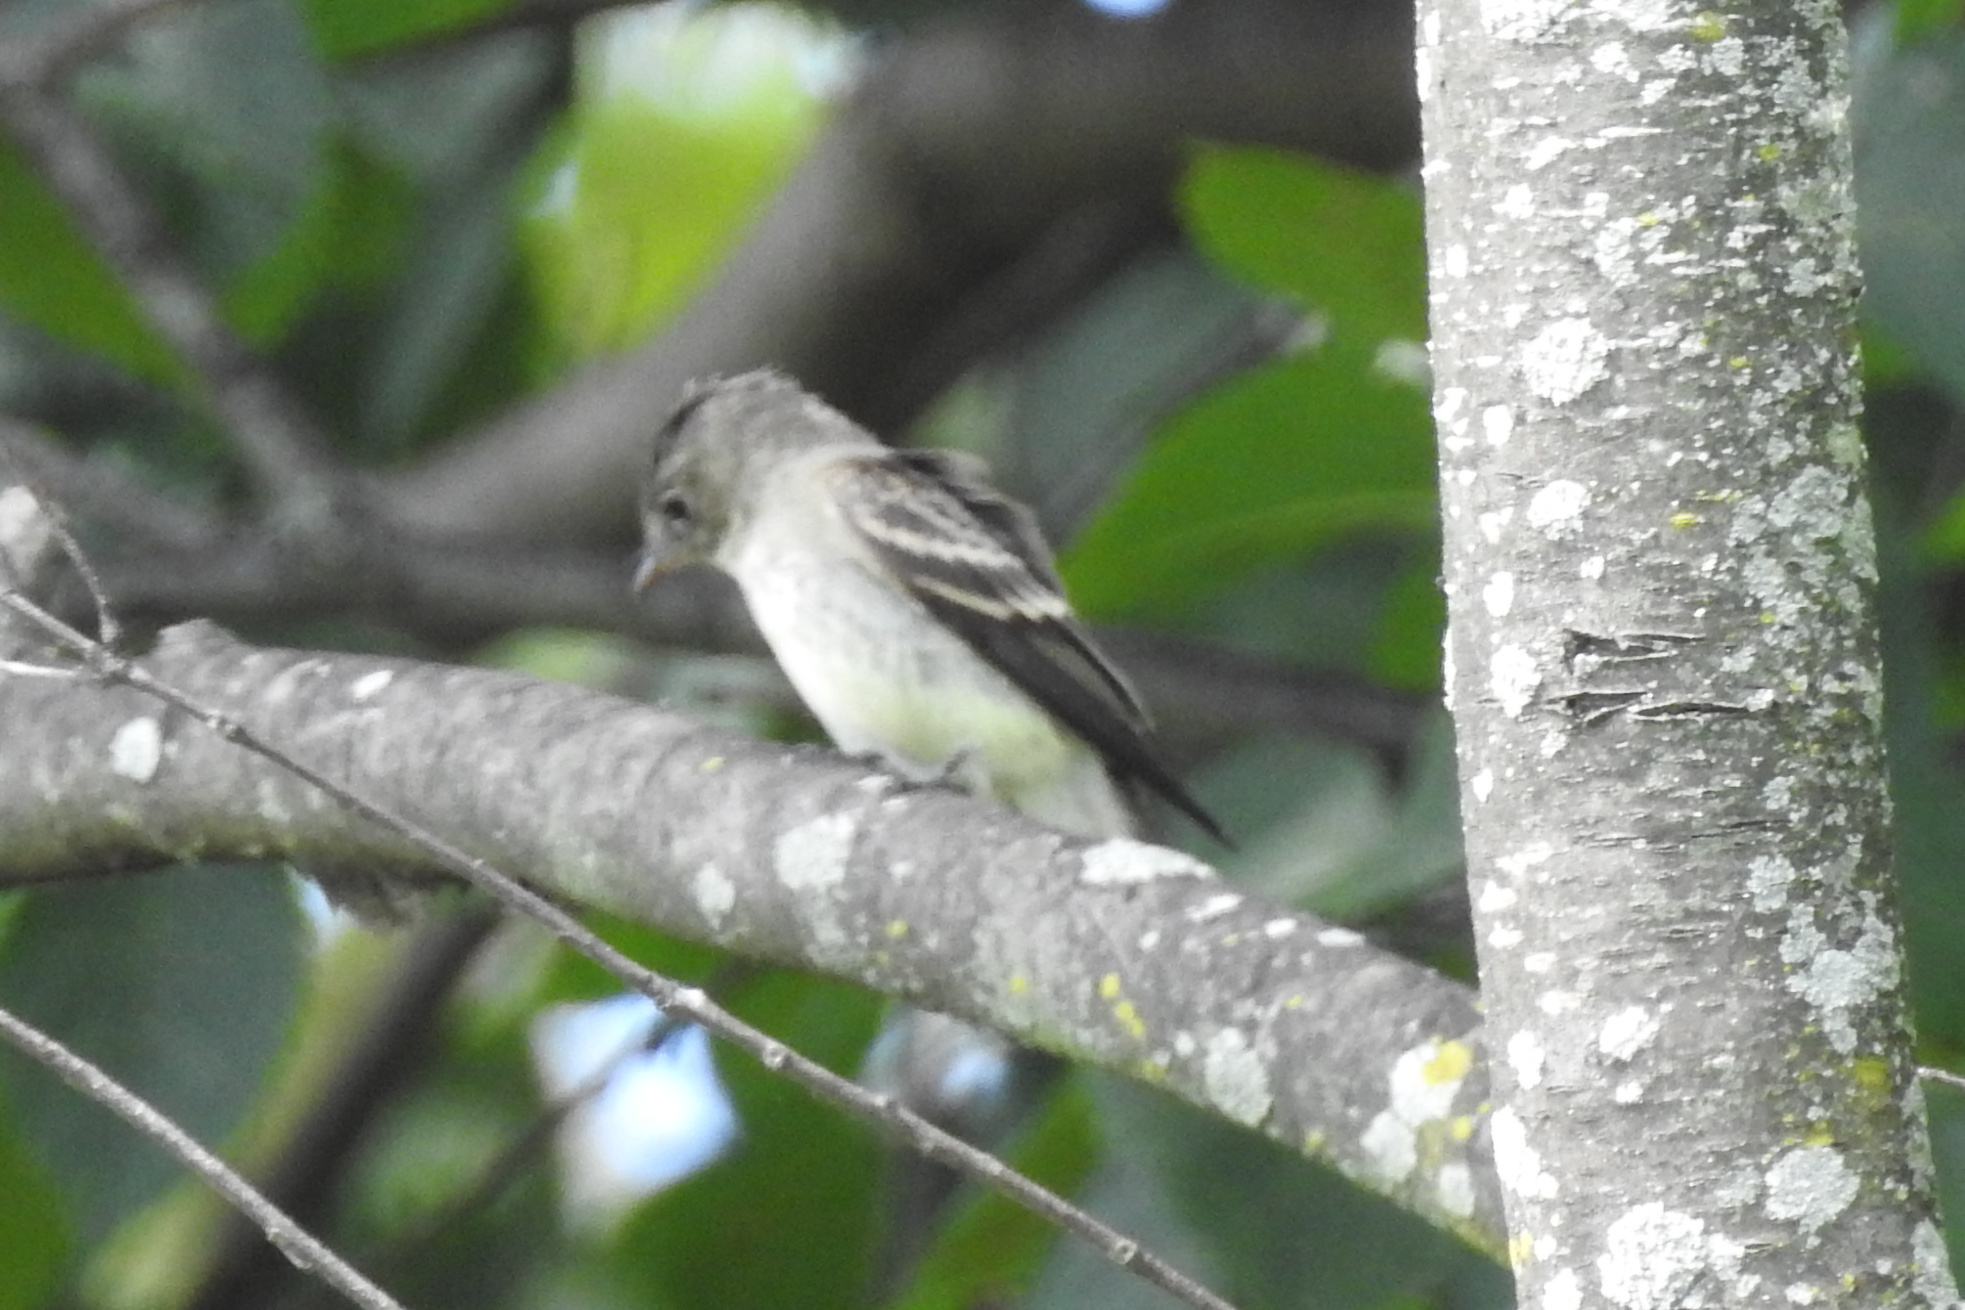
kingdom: Animalia
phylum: Chordata
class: Aves
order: Passeriformes
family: Tyrannidae
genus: Contopus
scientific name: Contopus virens
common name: Eastern wood-pewee
